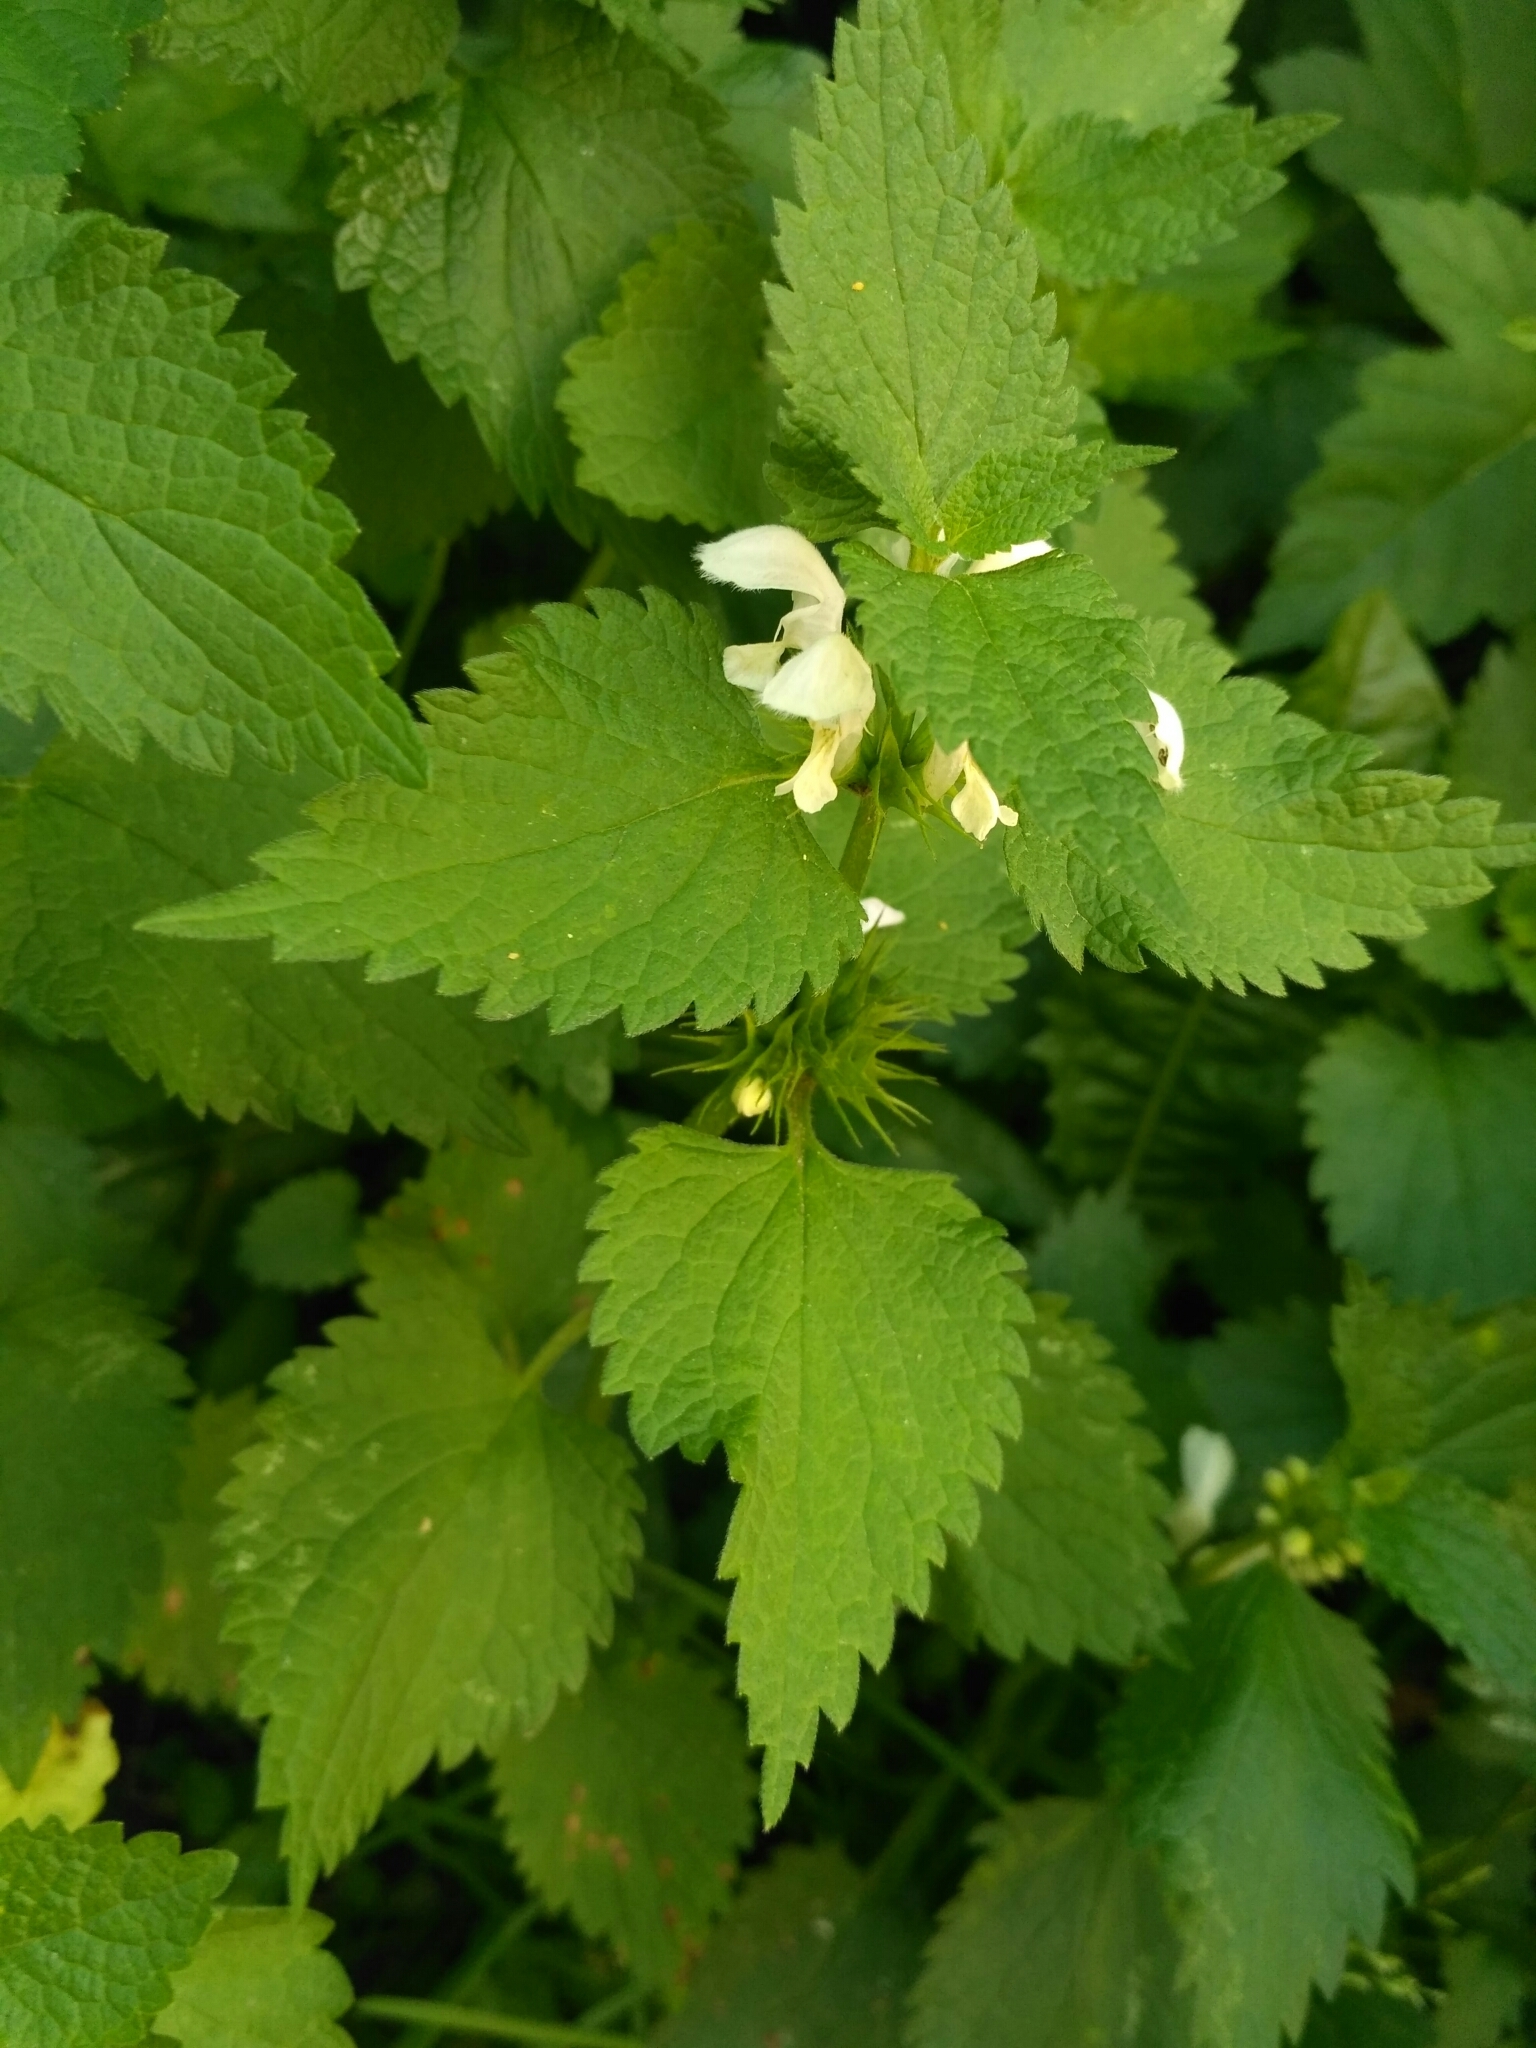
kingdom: Plantae
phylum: Tracheophyta
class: Magnoliopsida
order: Lamiales
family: Lamiaceae
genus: Lamium
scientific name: Lamium album
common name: White dead-nettle
